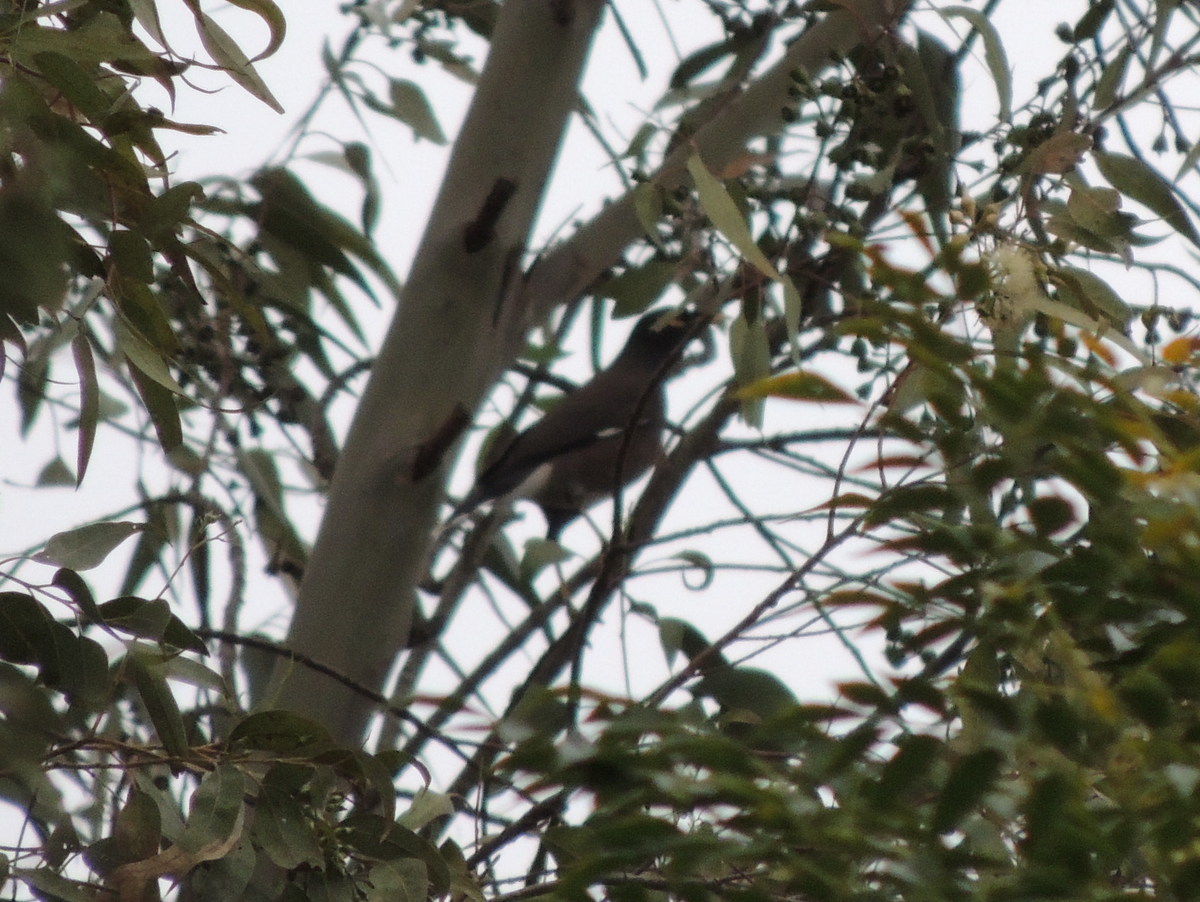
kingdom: Animalia
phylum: Chordata
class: Aves
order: Passeriformes
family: Sturnidae
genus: Acridotheres
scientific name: Acridotheres tristis
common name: Common myna
